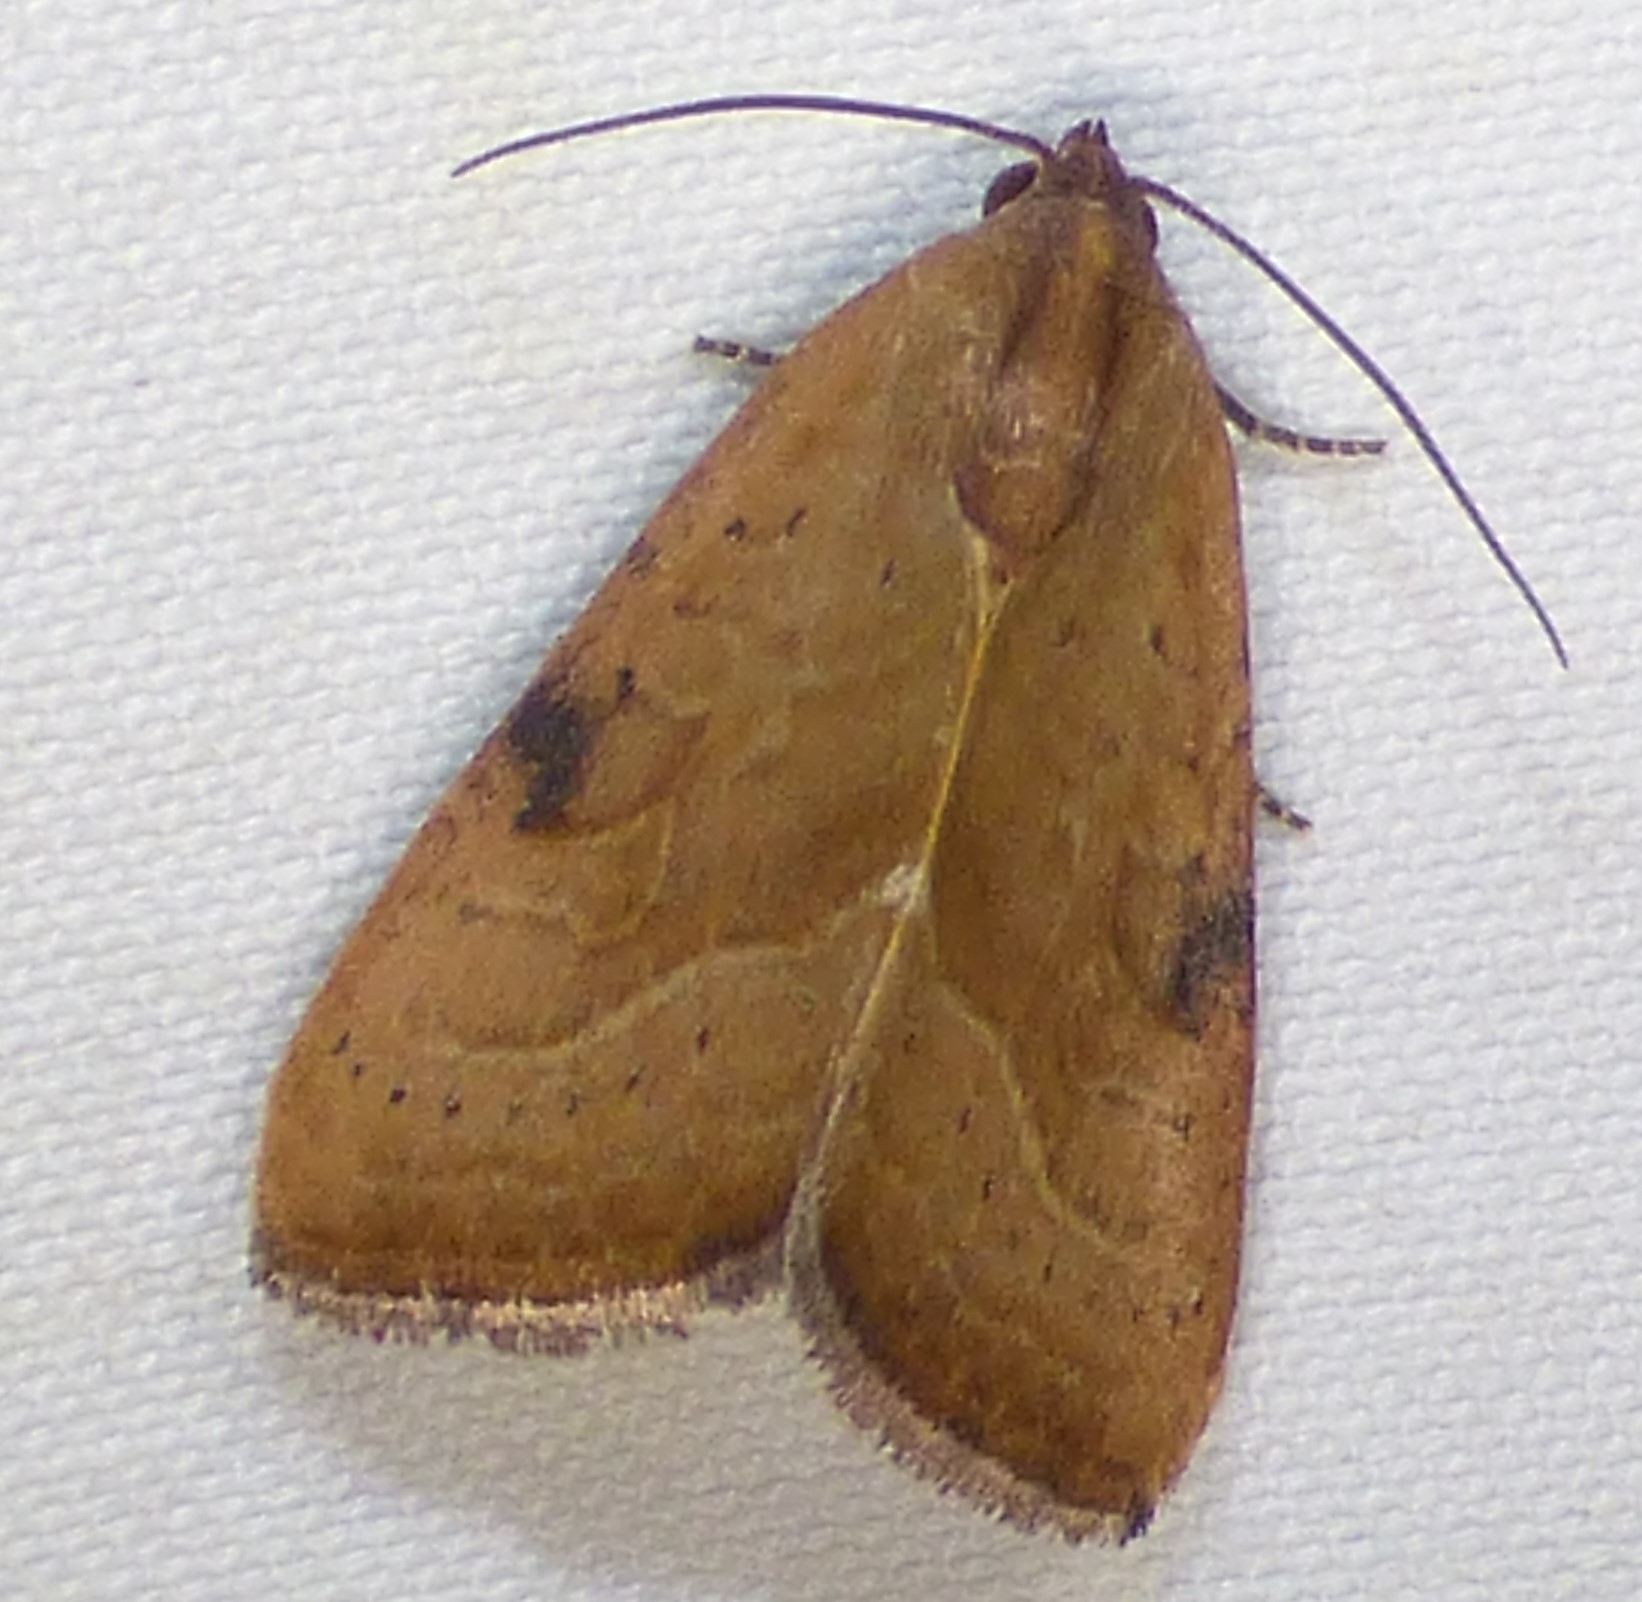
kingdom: Animalia
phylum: Arthropoda
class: Insecta
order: Lepidoptera
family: Noctuidae
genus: Galgula
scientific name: Galgula partita
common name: Wedgeling
